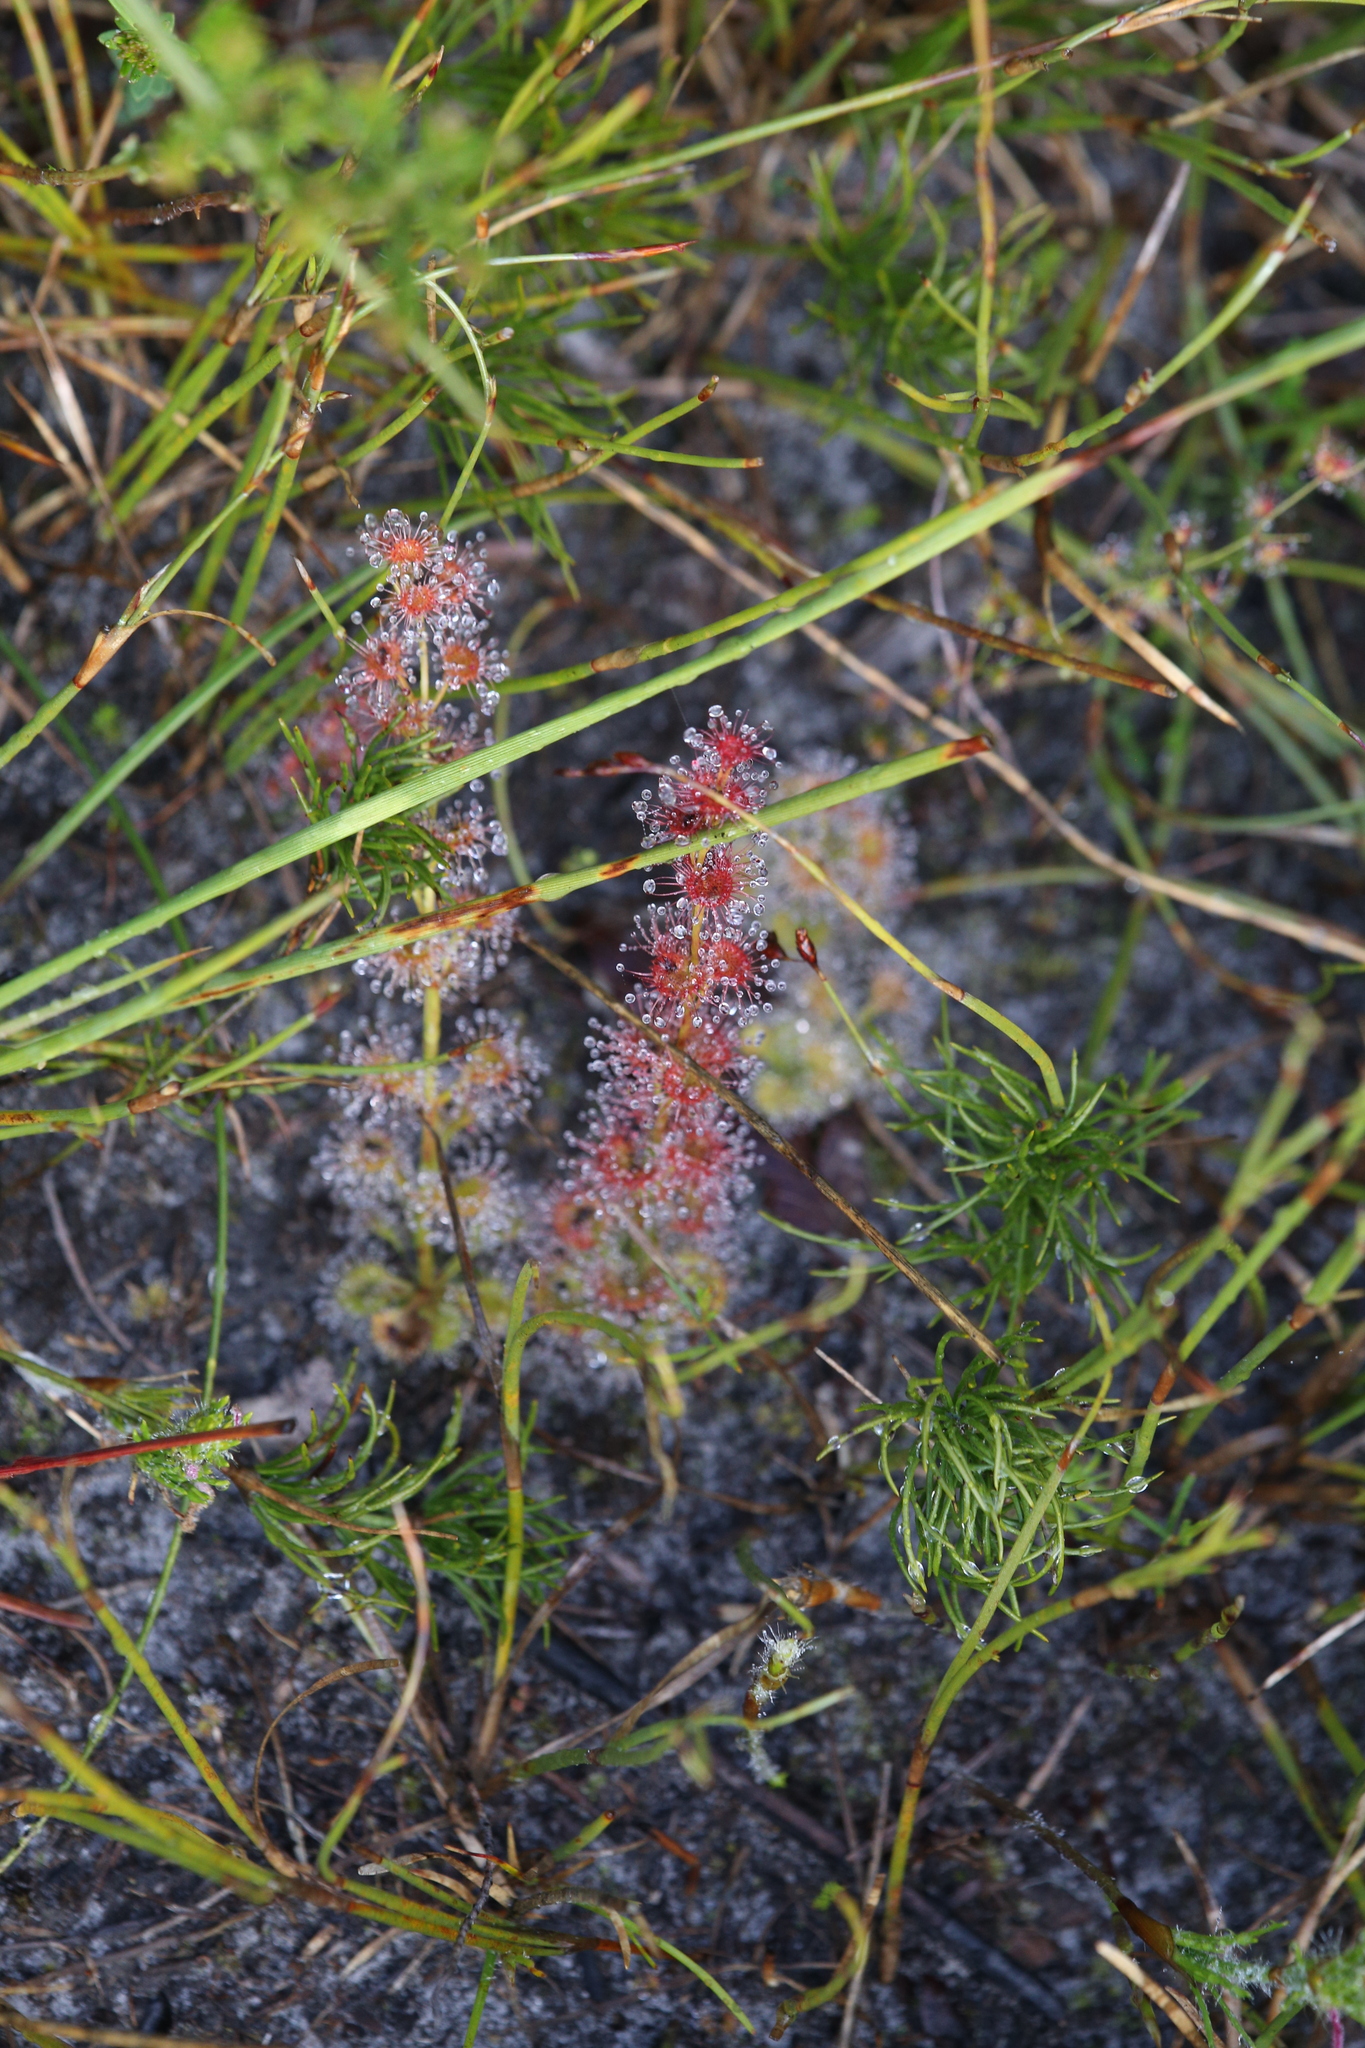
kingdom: Plantae
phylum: Tracheophyta
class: Magnoliopsida
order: Caryophyllales
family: Droseraceae
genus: Drosera
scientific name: Drosera platypoda
